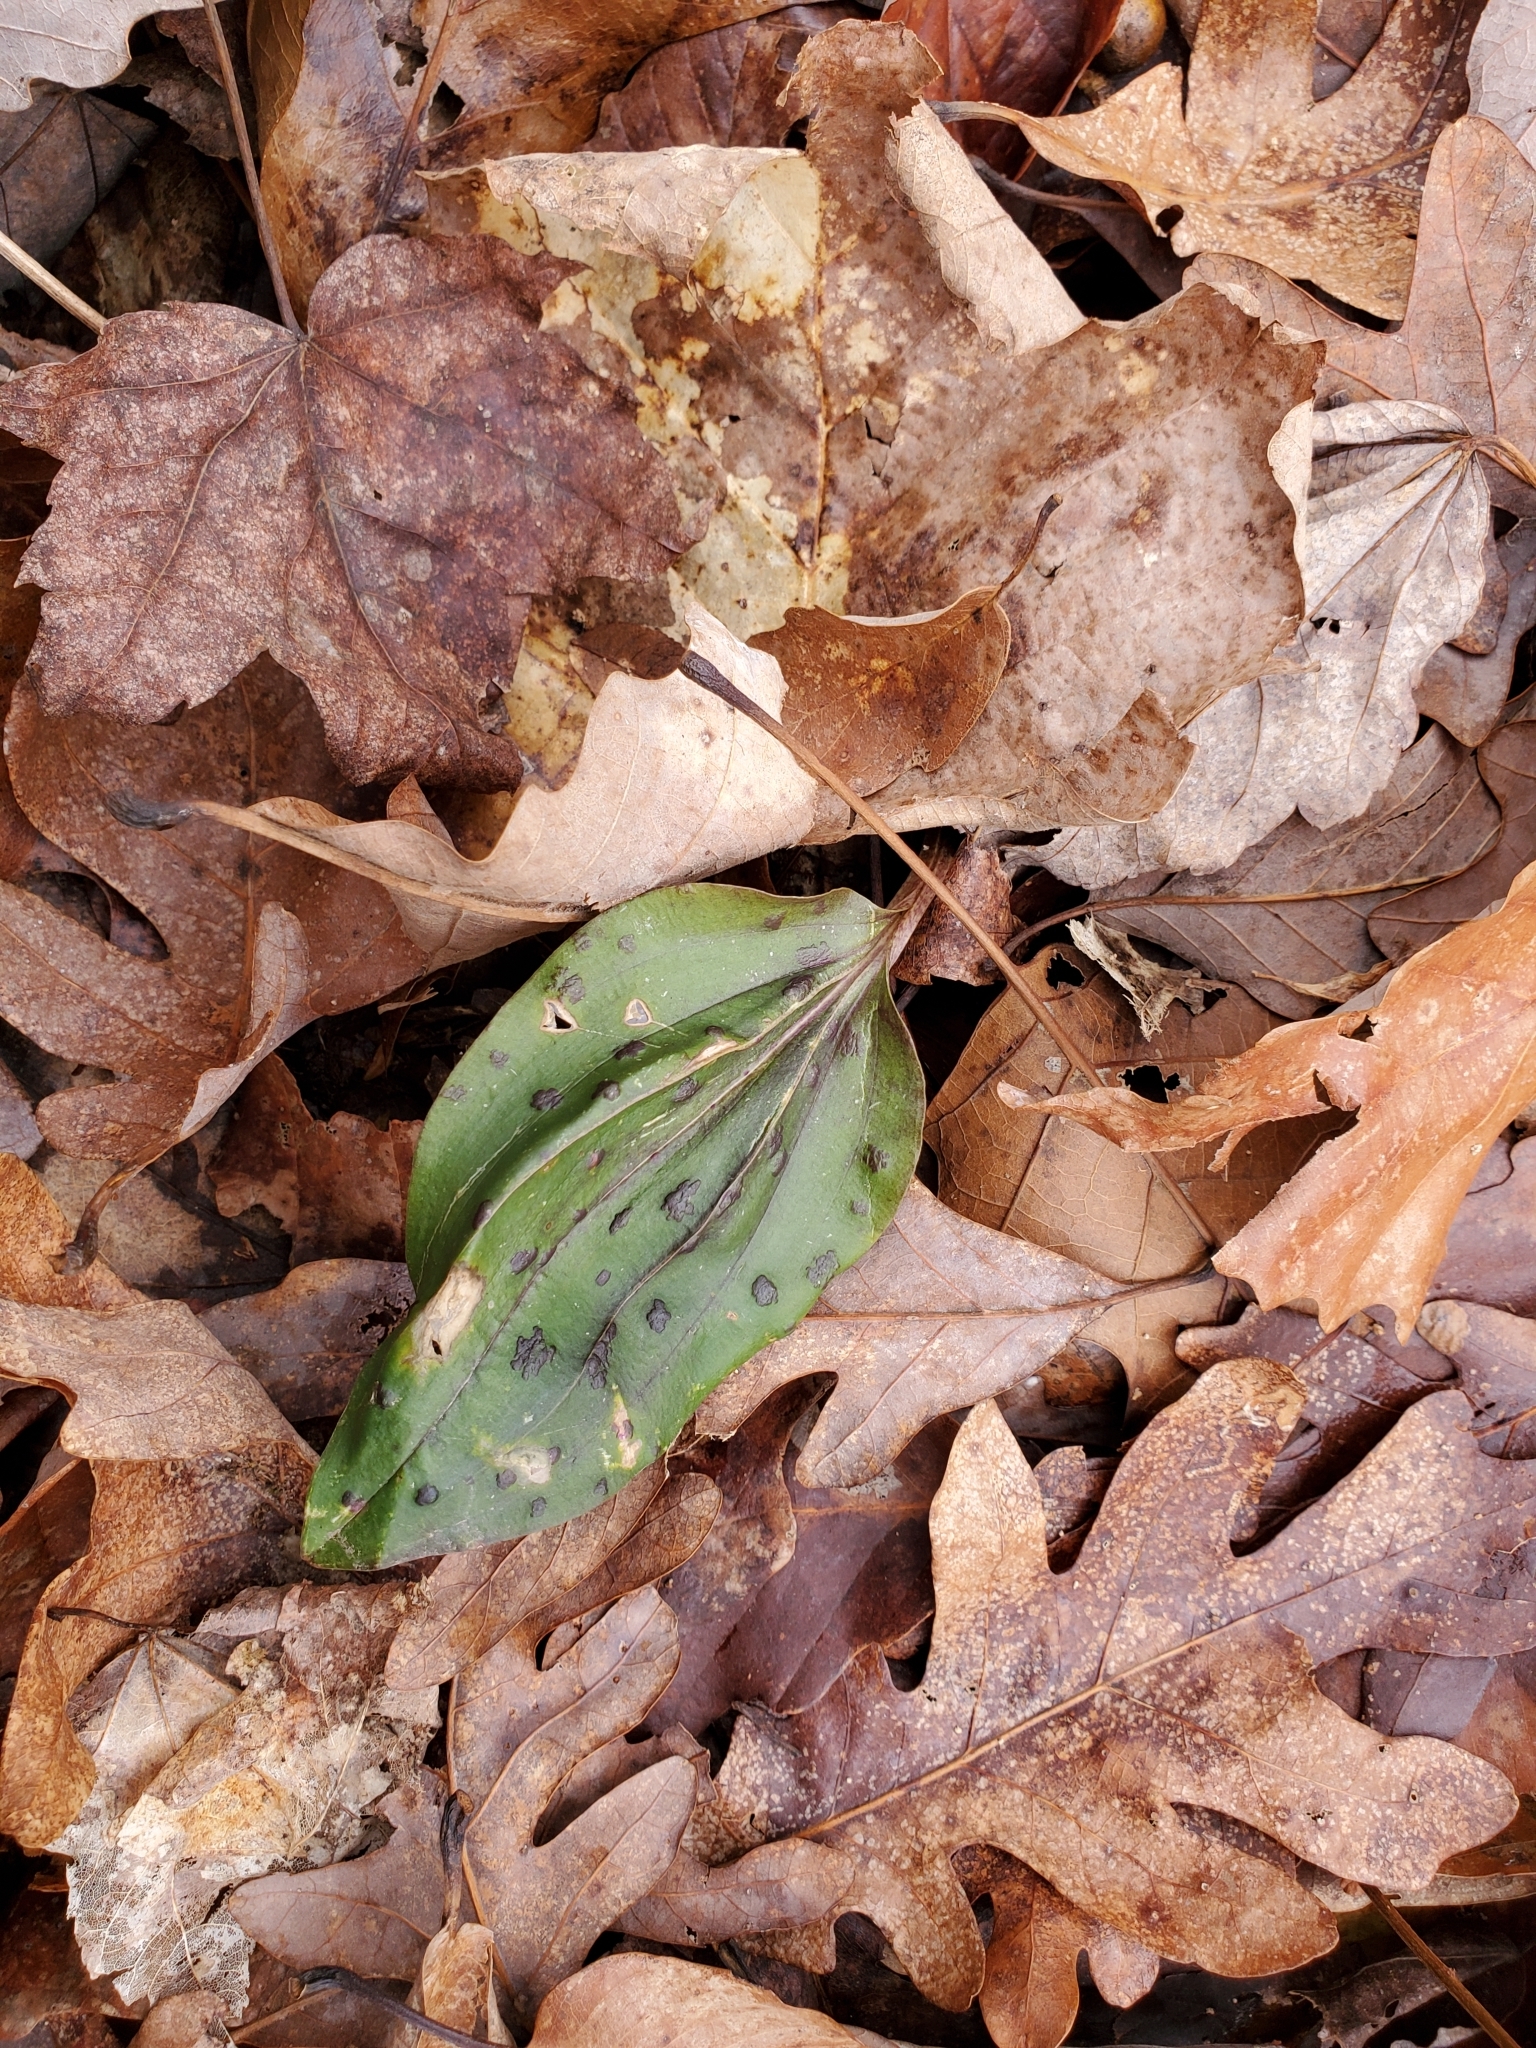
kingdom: Plantae
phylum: Tracheophyta
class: Liliopsida
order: Asparagales
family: Orchidaceae
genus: Tipularia
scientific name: Tipularia discolor
